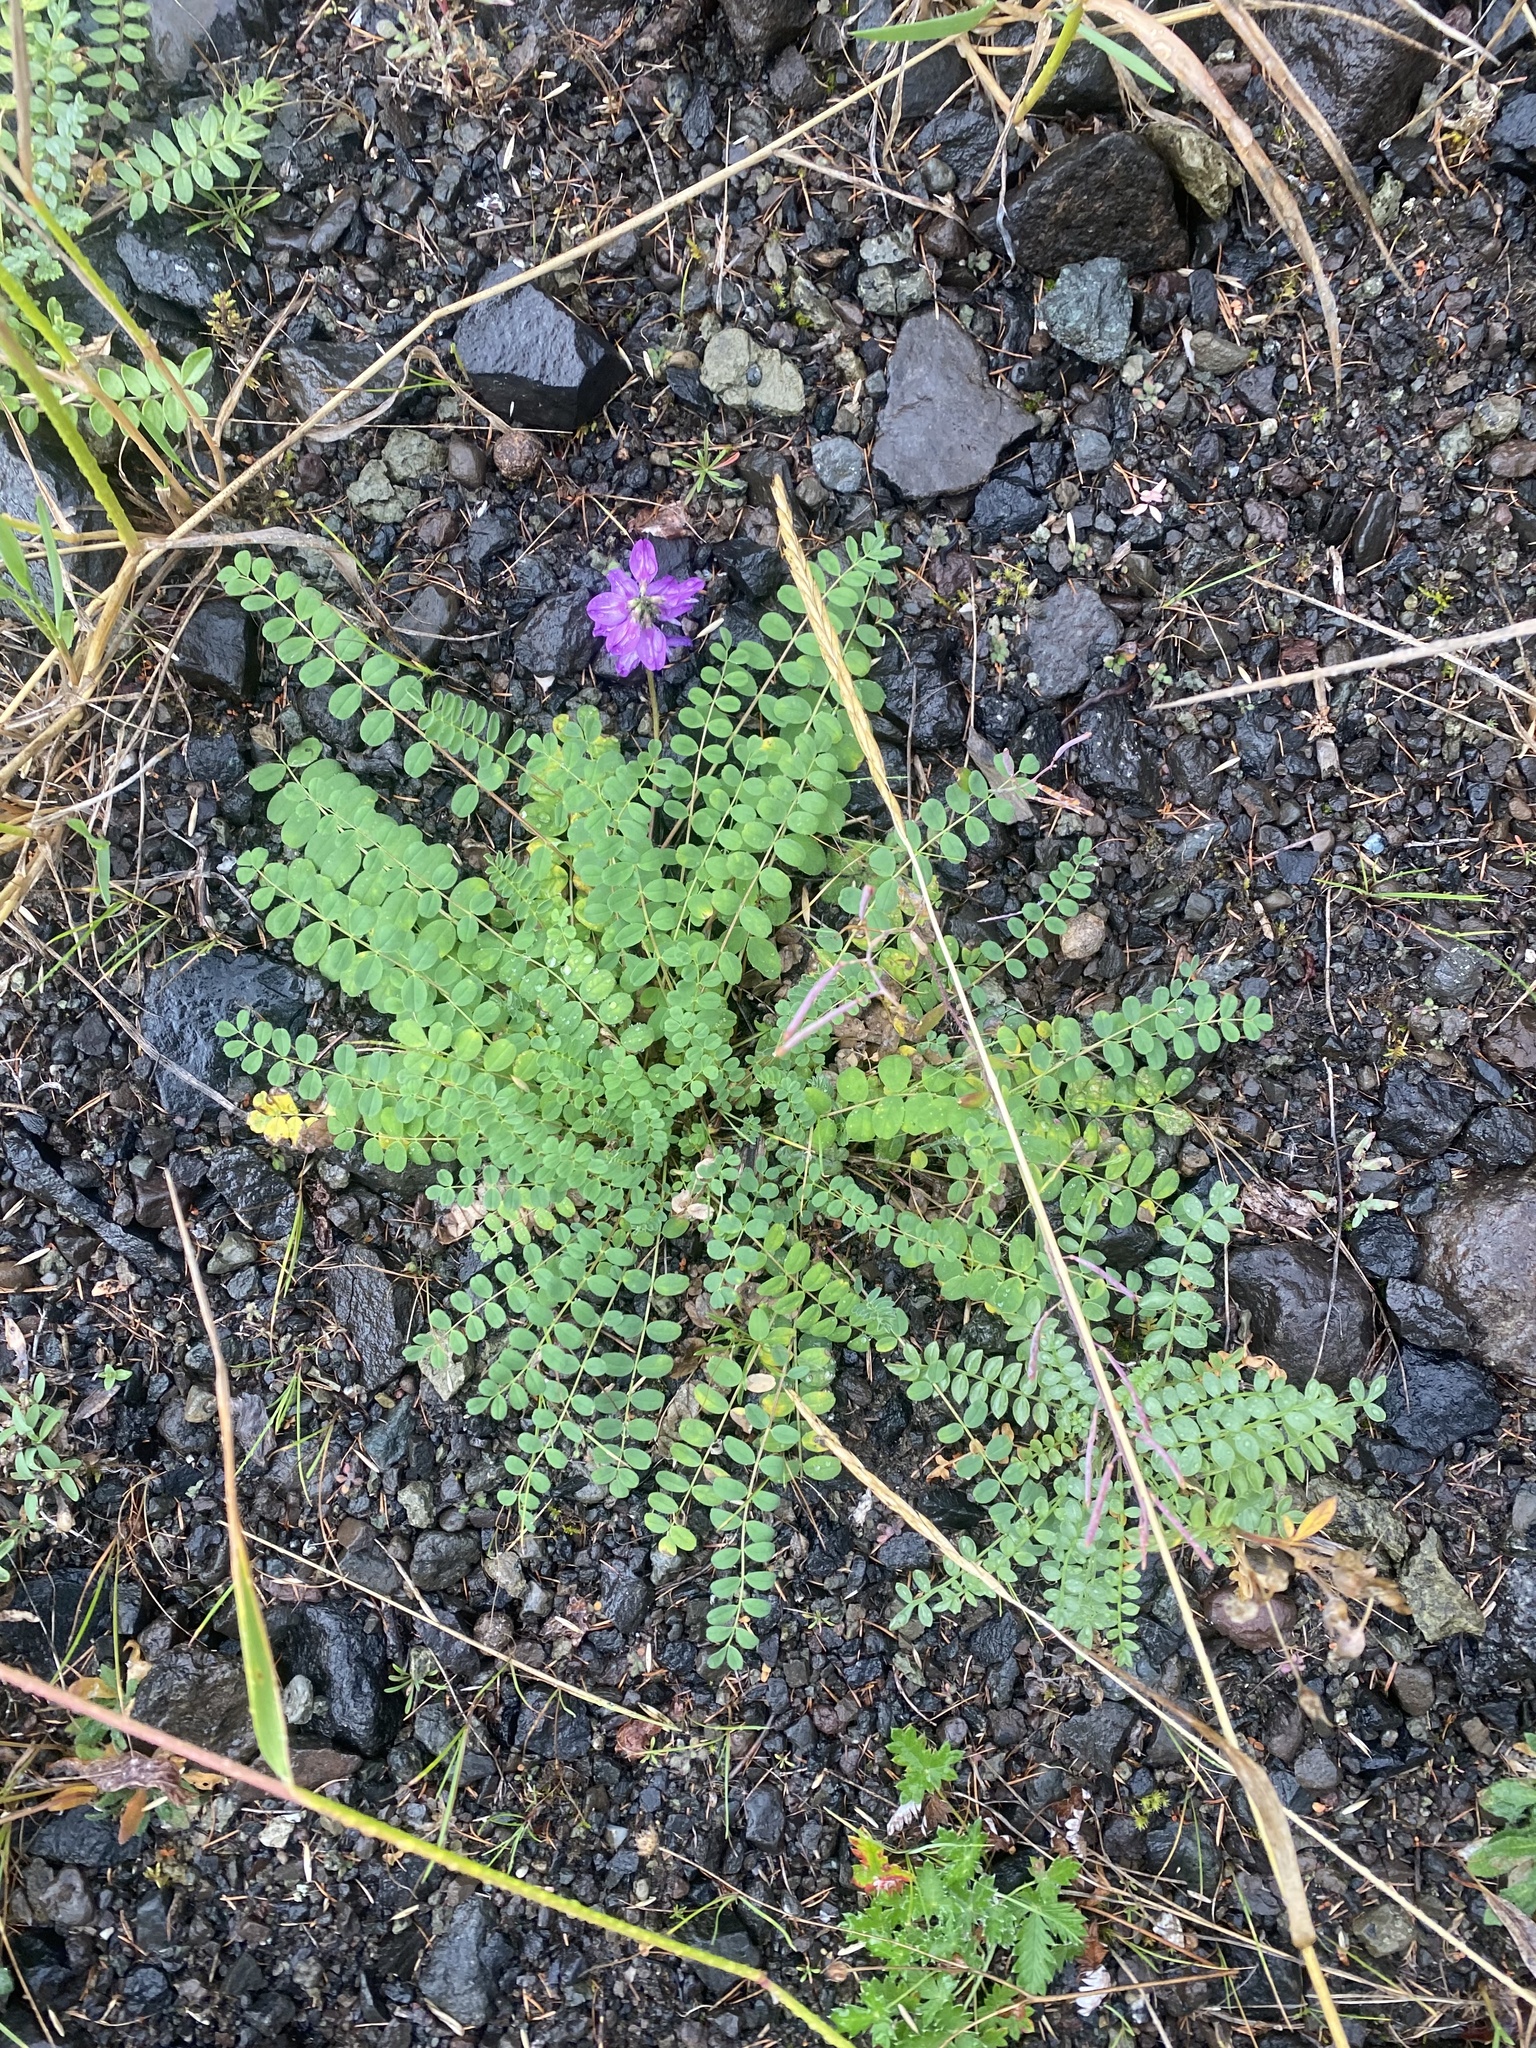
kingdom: Plantae
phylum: Tracheophyta
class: Magnoliopsida
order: Fabales
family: Fabaceae
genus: Astragalus
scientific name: Astragalus alpinus
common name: Alpine milk-vetch
